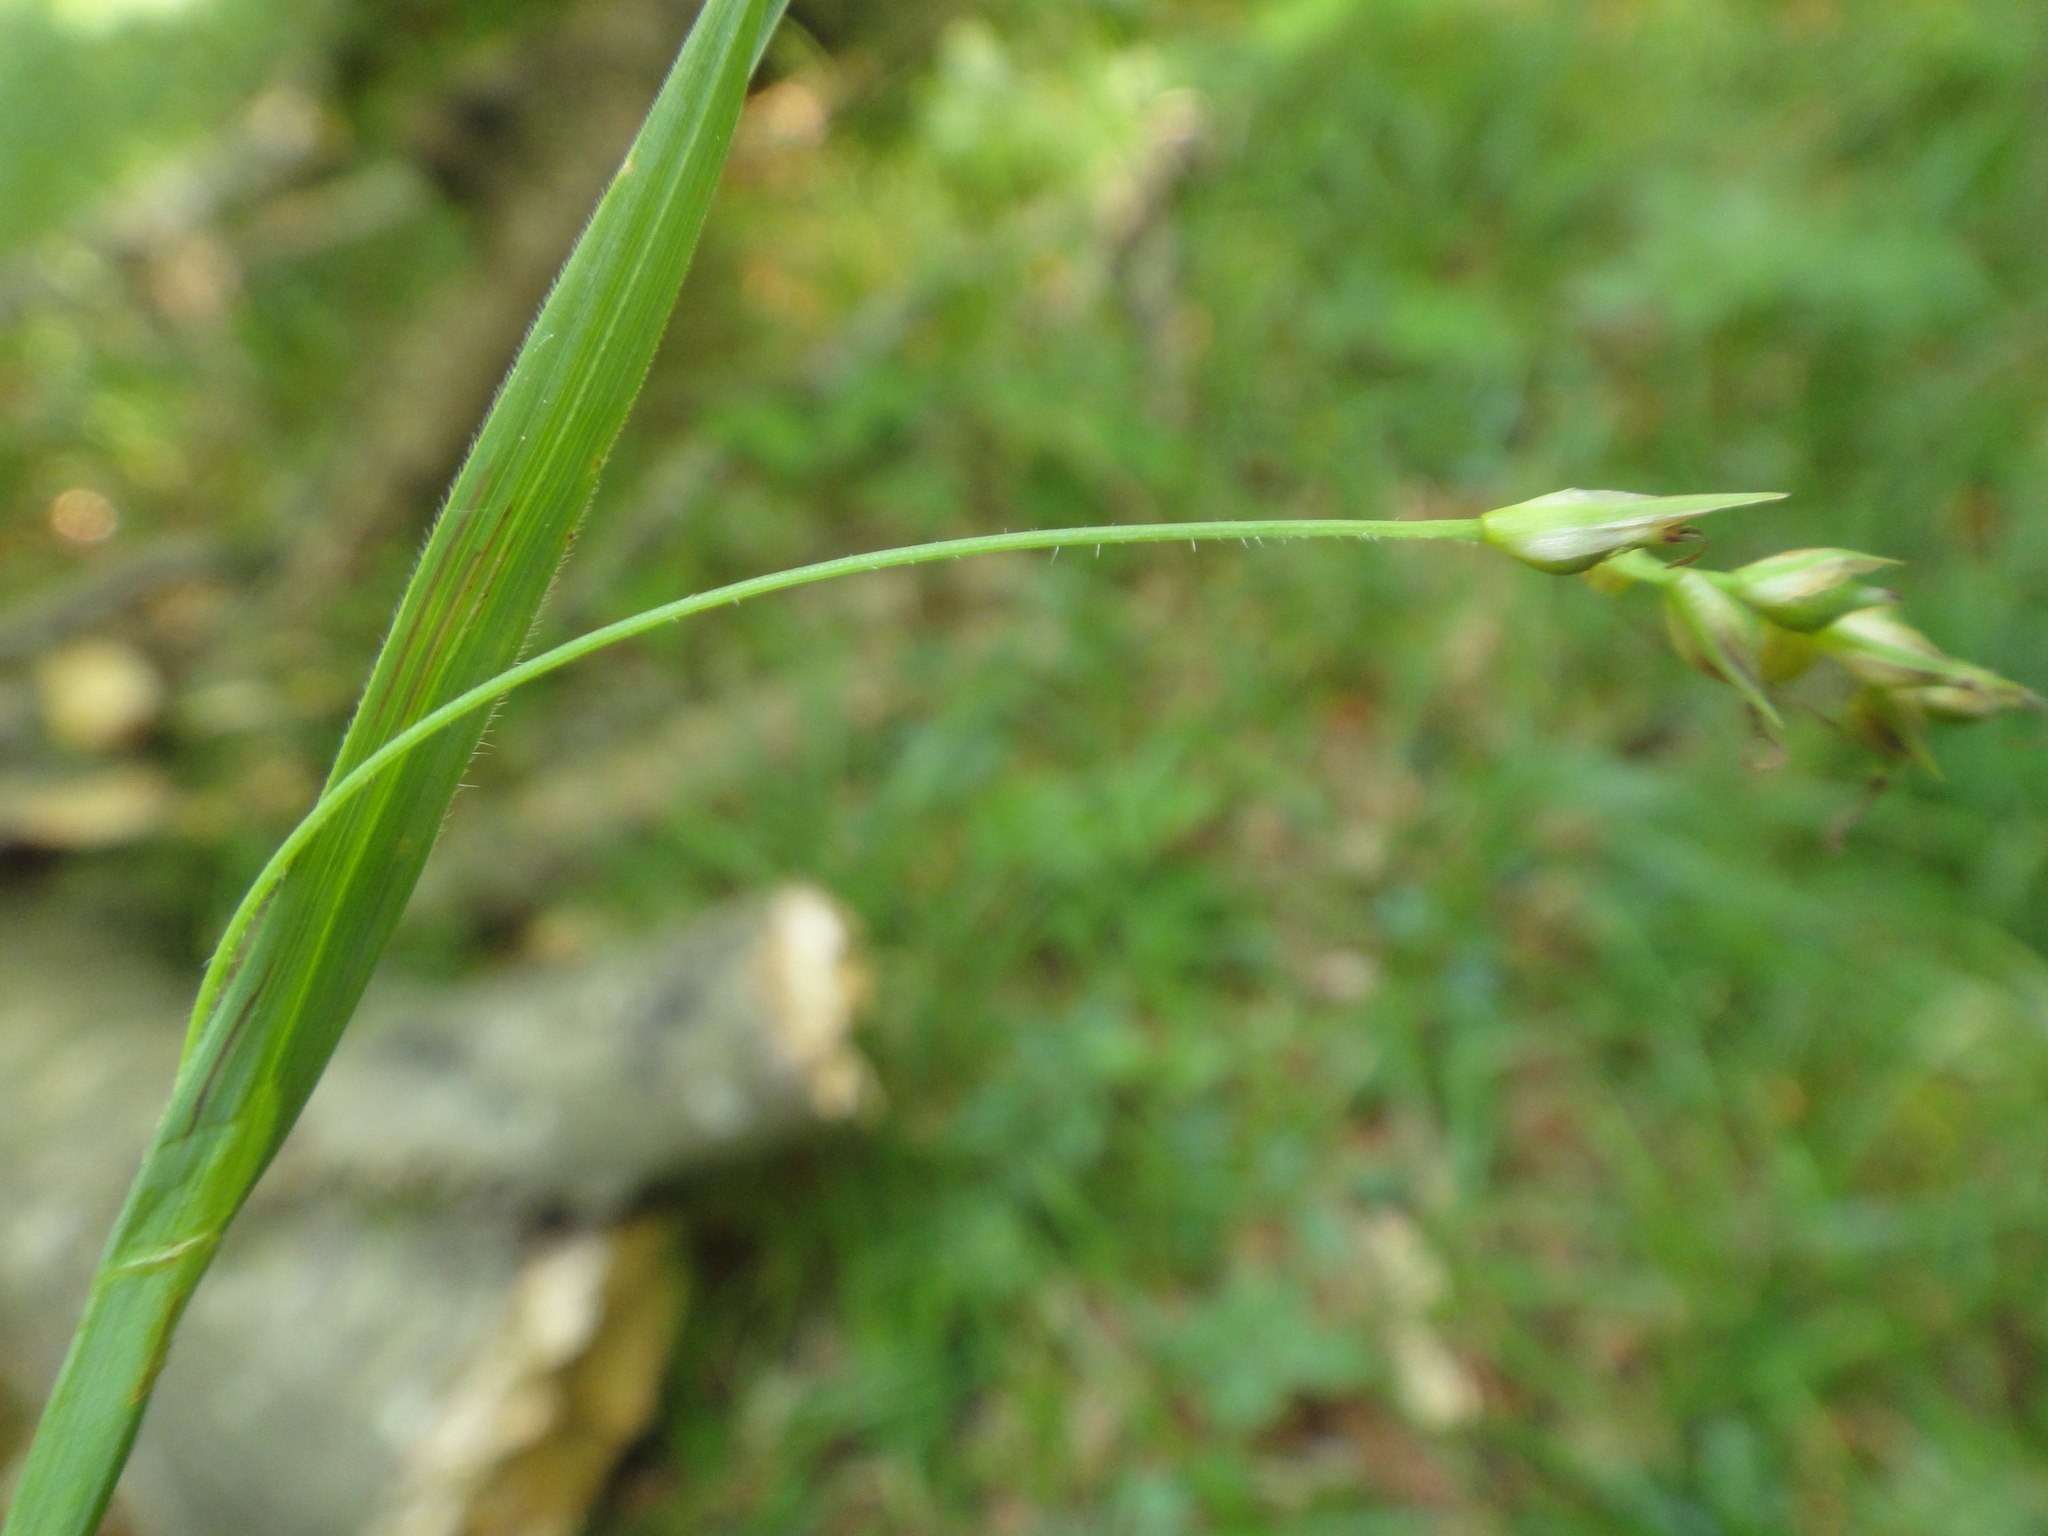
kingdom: Plantae
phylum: Tracheophyta
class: Liliopsida
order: Poales
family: Cyperaceae
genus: Carex
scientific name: Carex pilosa
